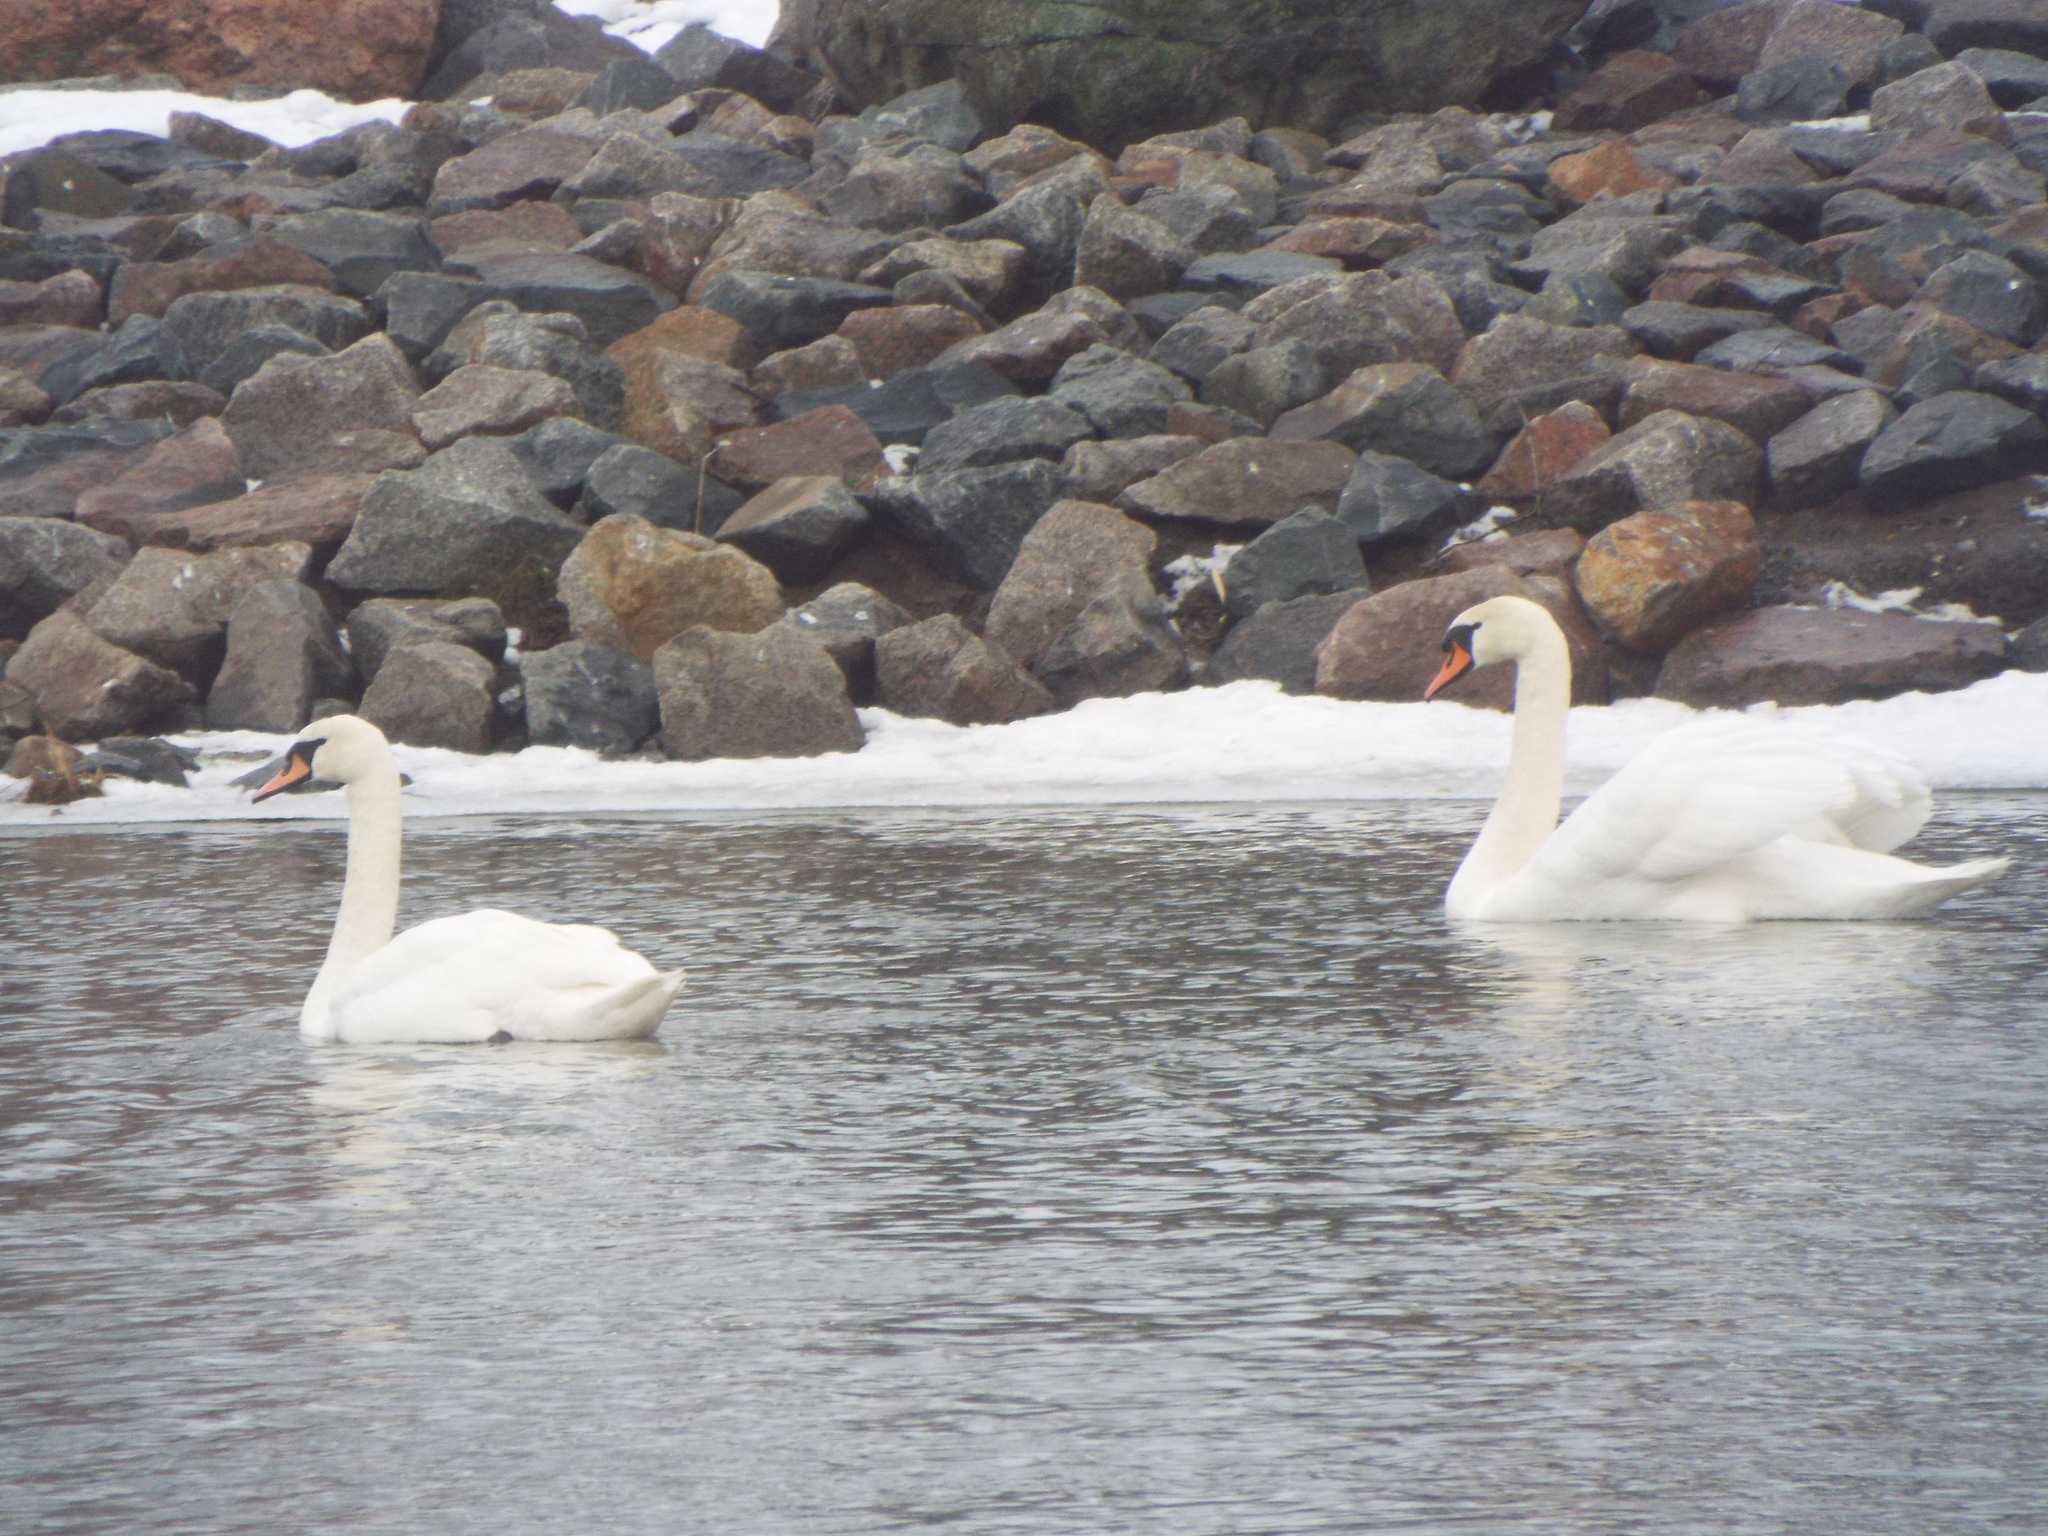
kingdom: Animalia
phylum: Chordata
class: Aves
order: Anseriformes
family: Anatidae
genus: Cygnus
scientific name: Cygnus olor
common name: Mute swan
